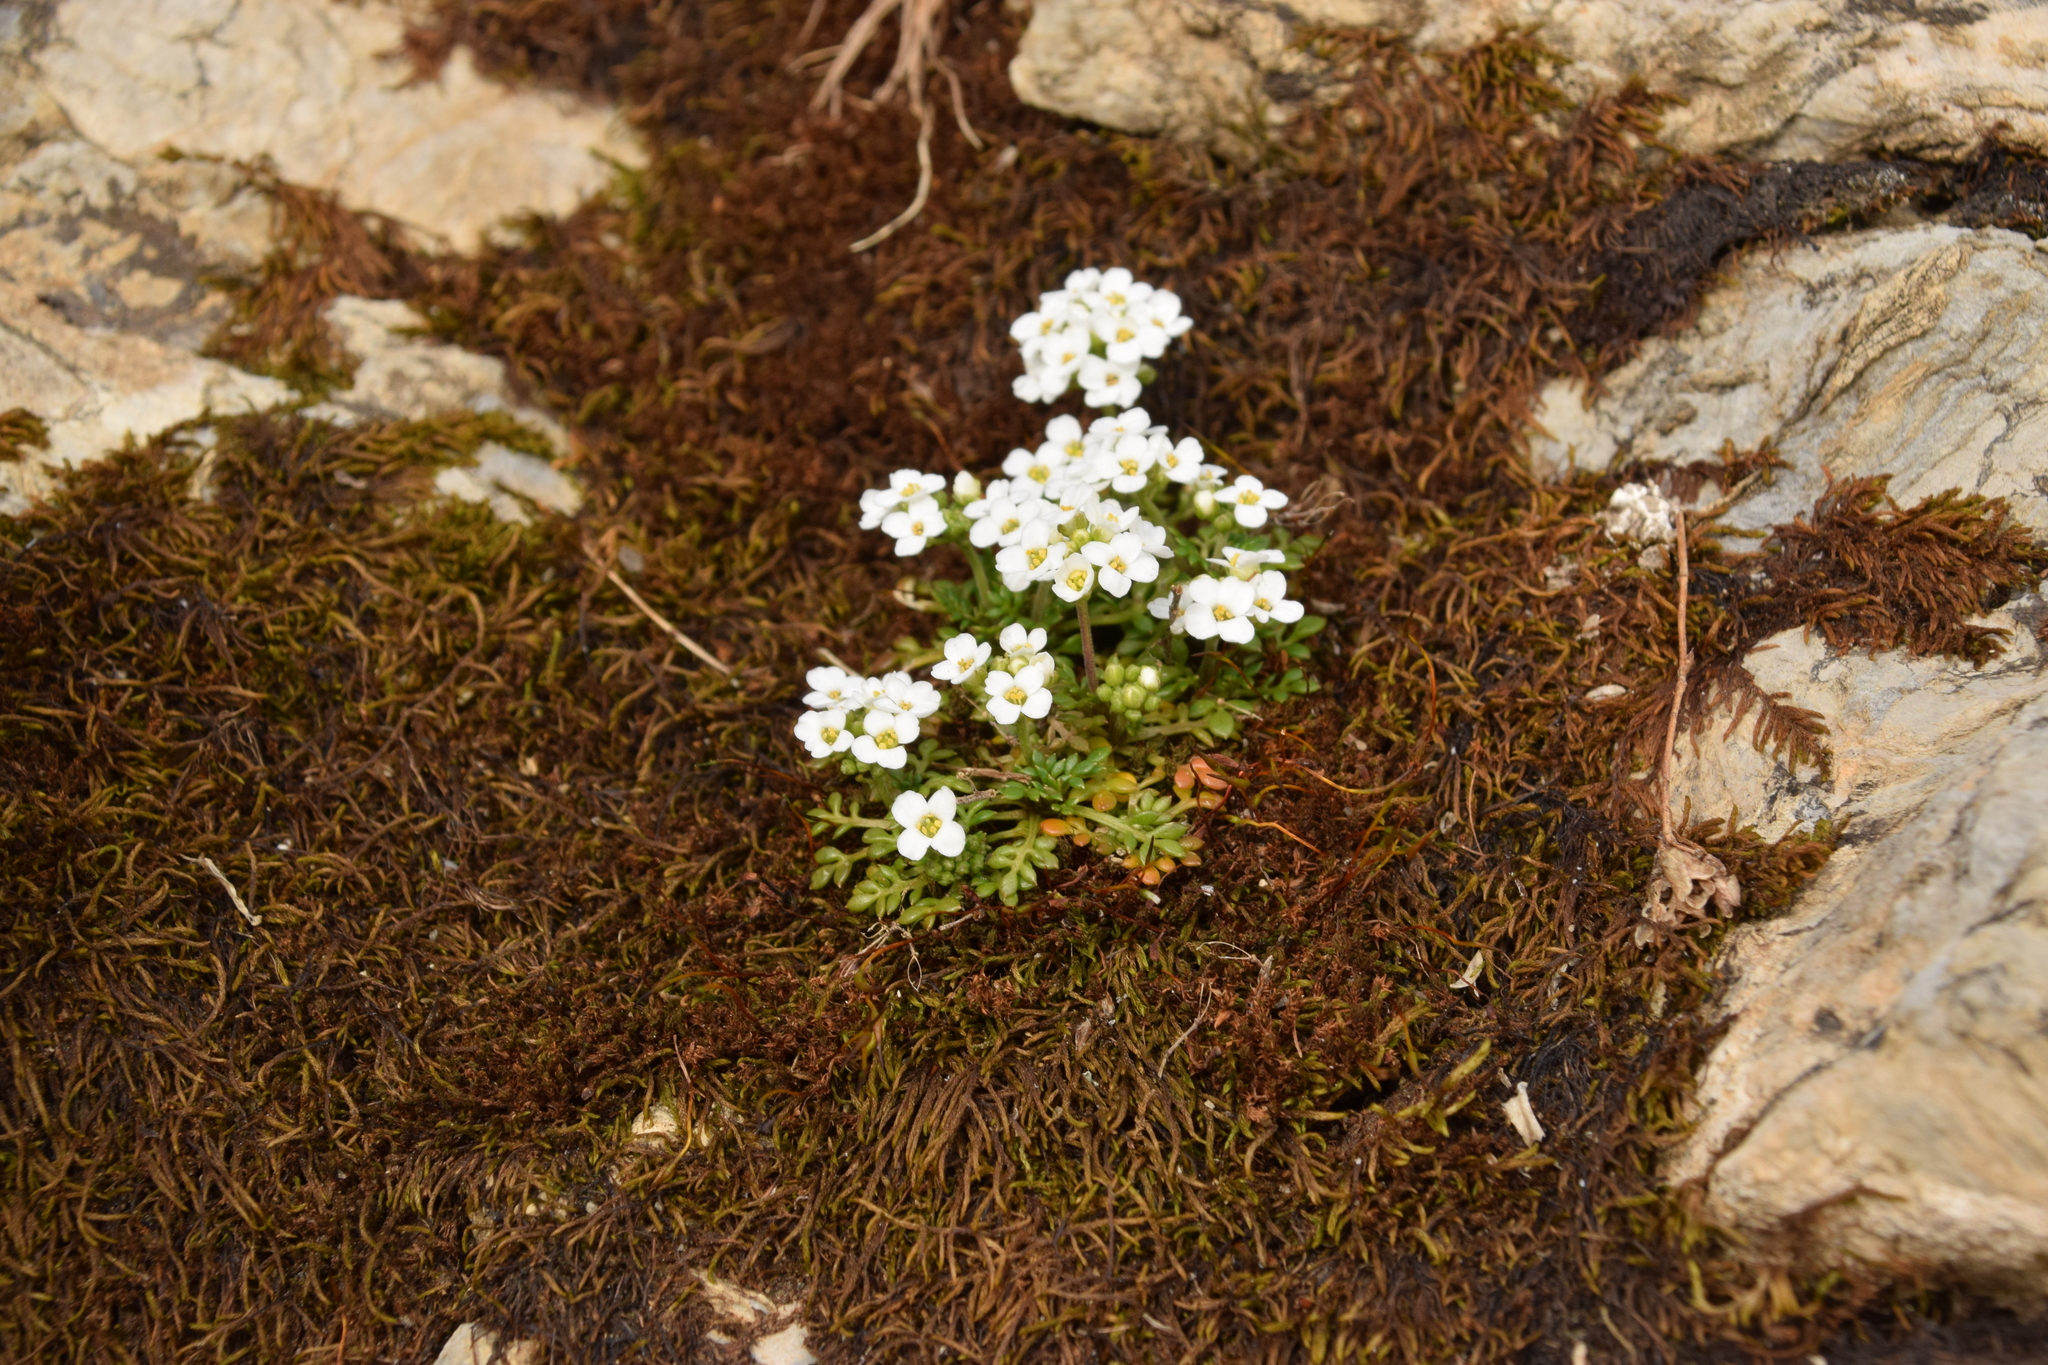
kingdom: Plantae
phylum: Tracheophyta
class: Magnoliopsida
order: Brassicales
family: Brassicaceae
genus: Hornungia
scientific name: Hornungia alpina
